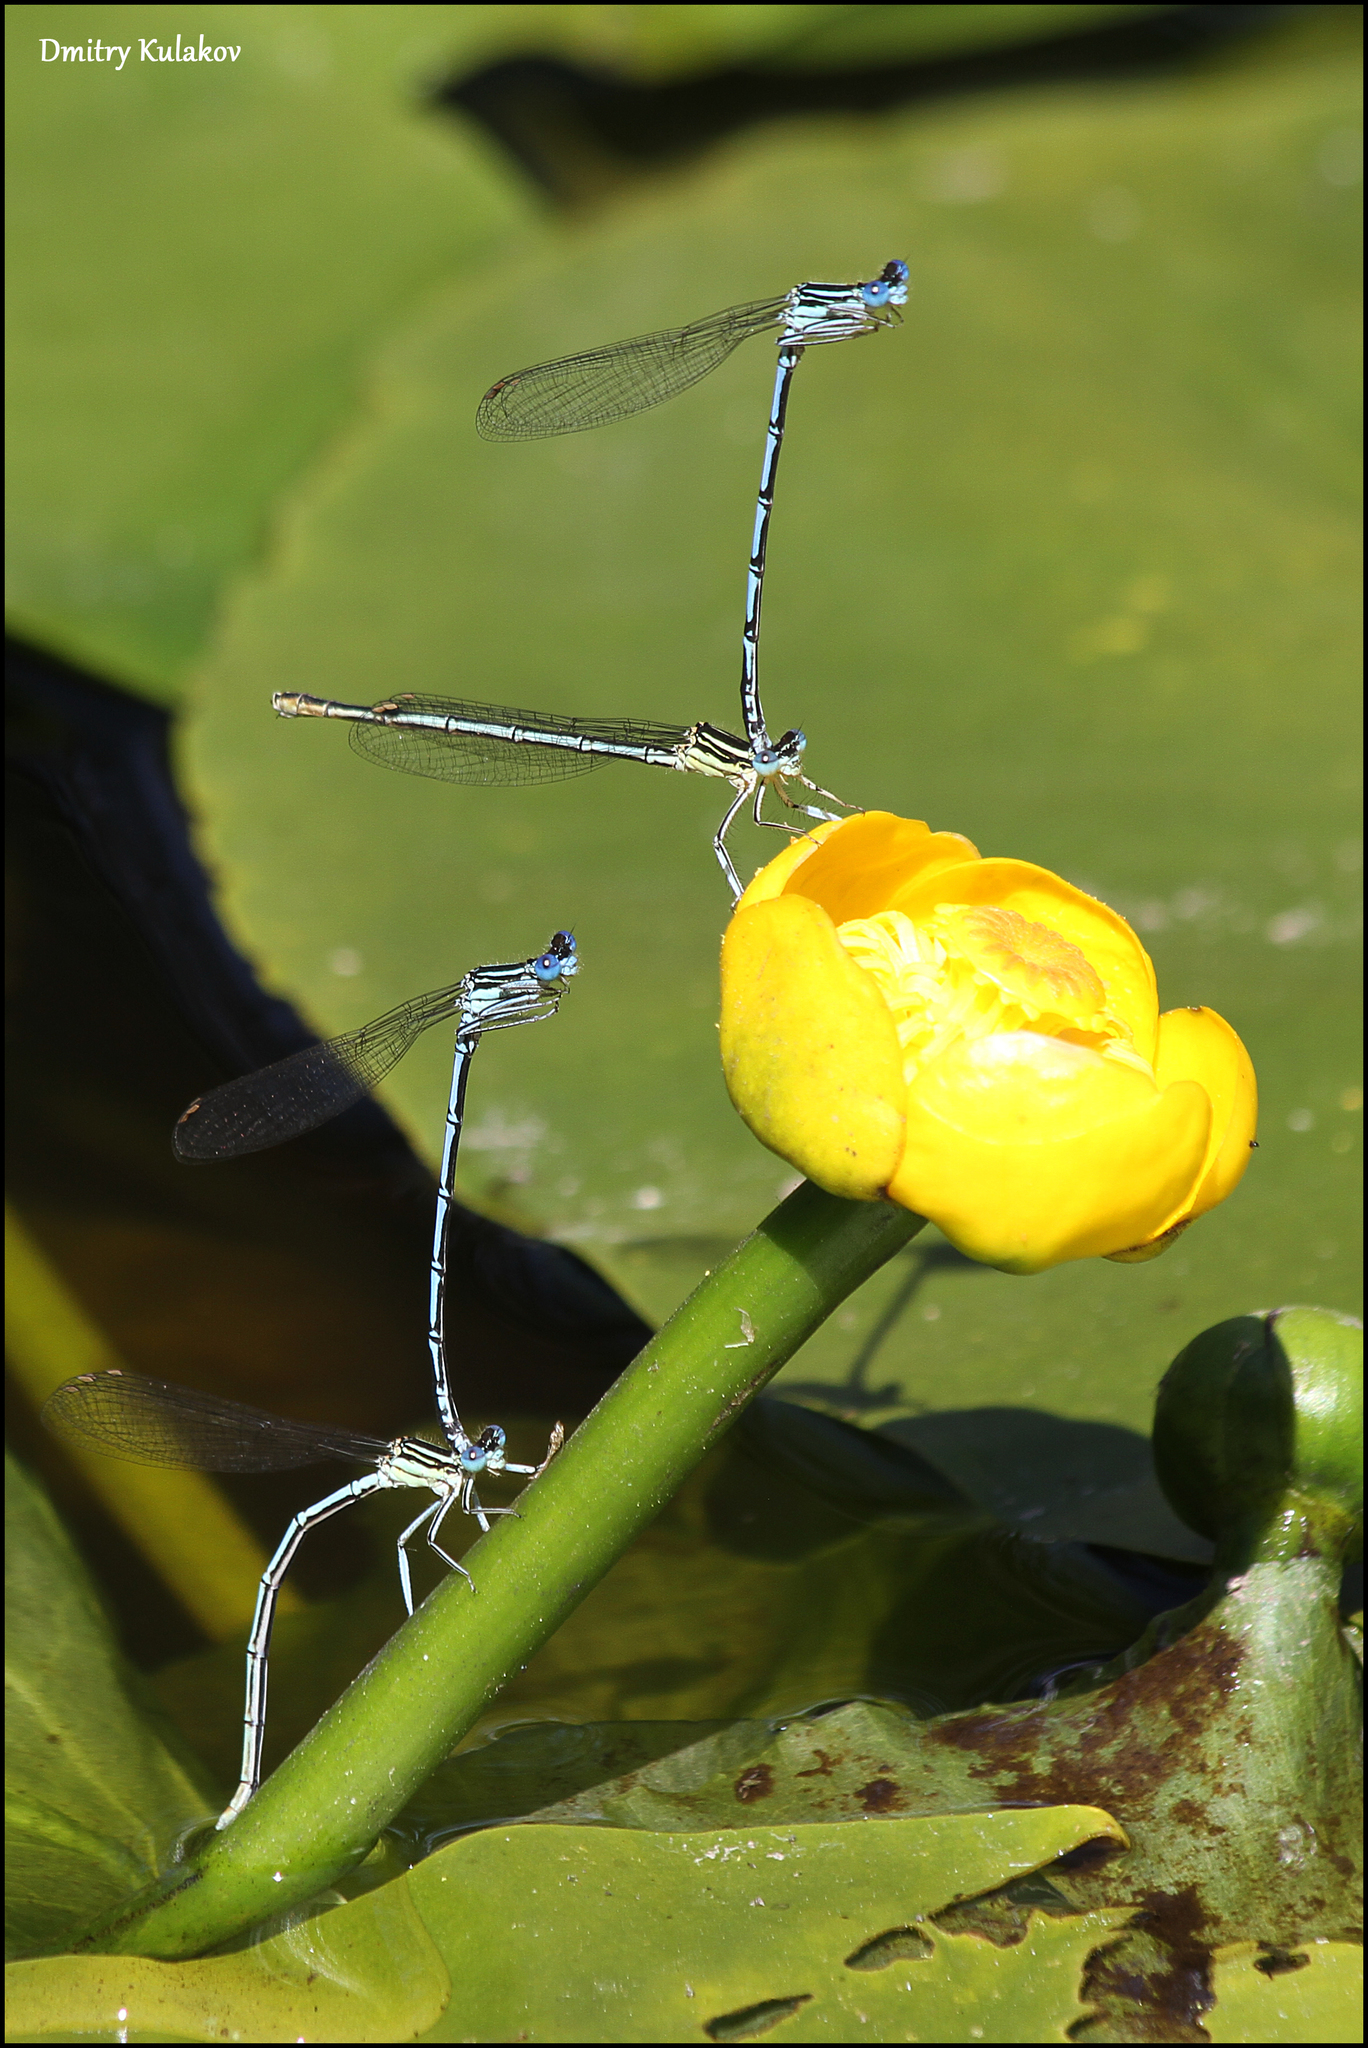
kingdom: Animalia
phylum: Arthropoda
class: Insecta
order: Odonata
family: Platycnemididae
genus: Platycnemis
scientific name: Platycnemis pennipes
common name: White-legged damselfly
